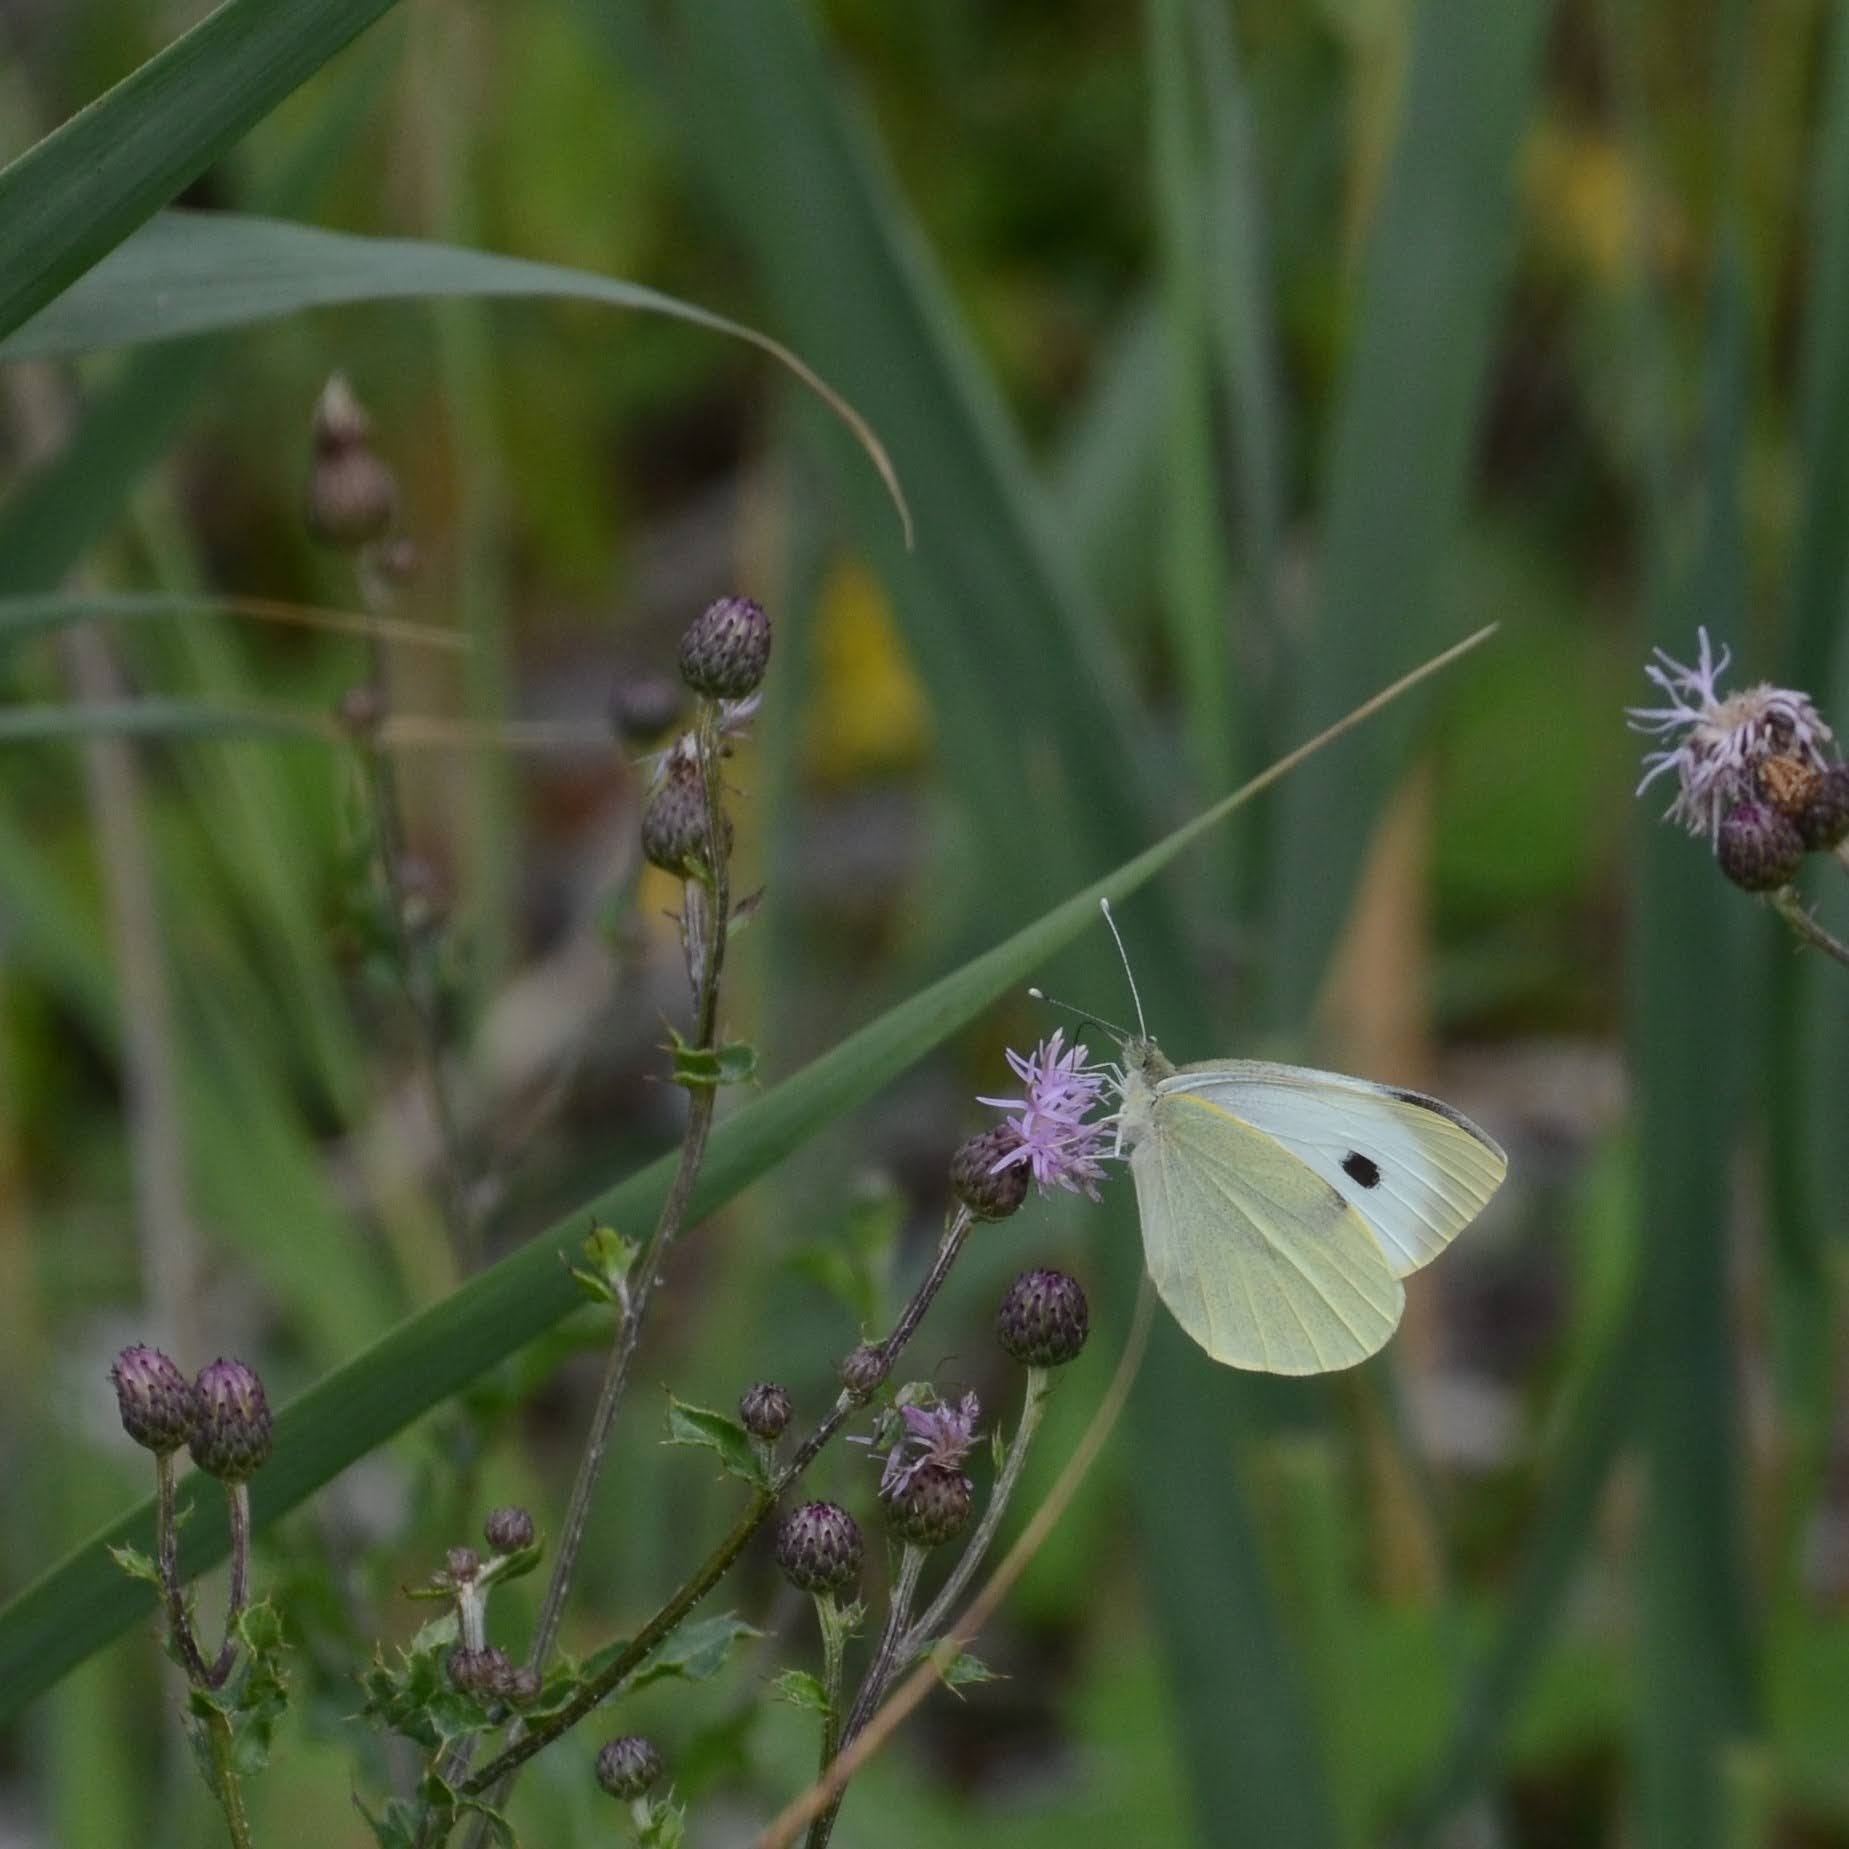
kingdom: Animalia
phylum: Arthropoda
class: Insecta
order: Lepidoptera
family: Pieridae
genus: Pieris
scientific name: Pieris brassicae
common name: Large white
